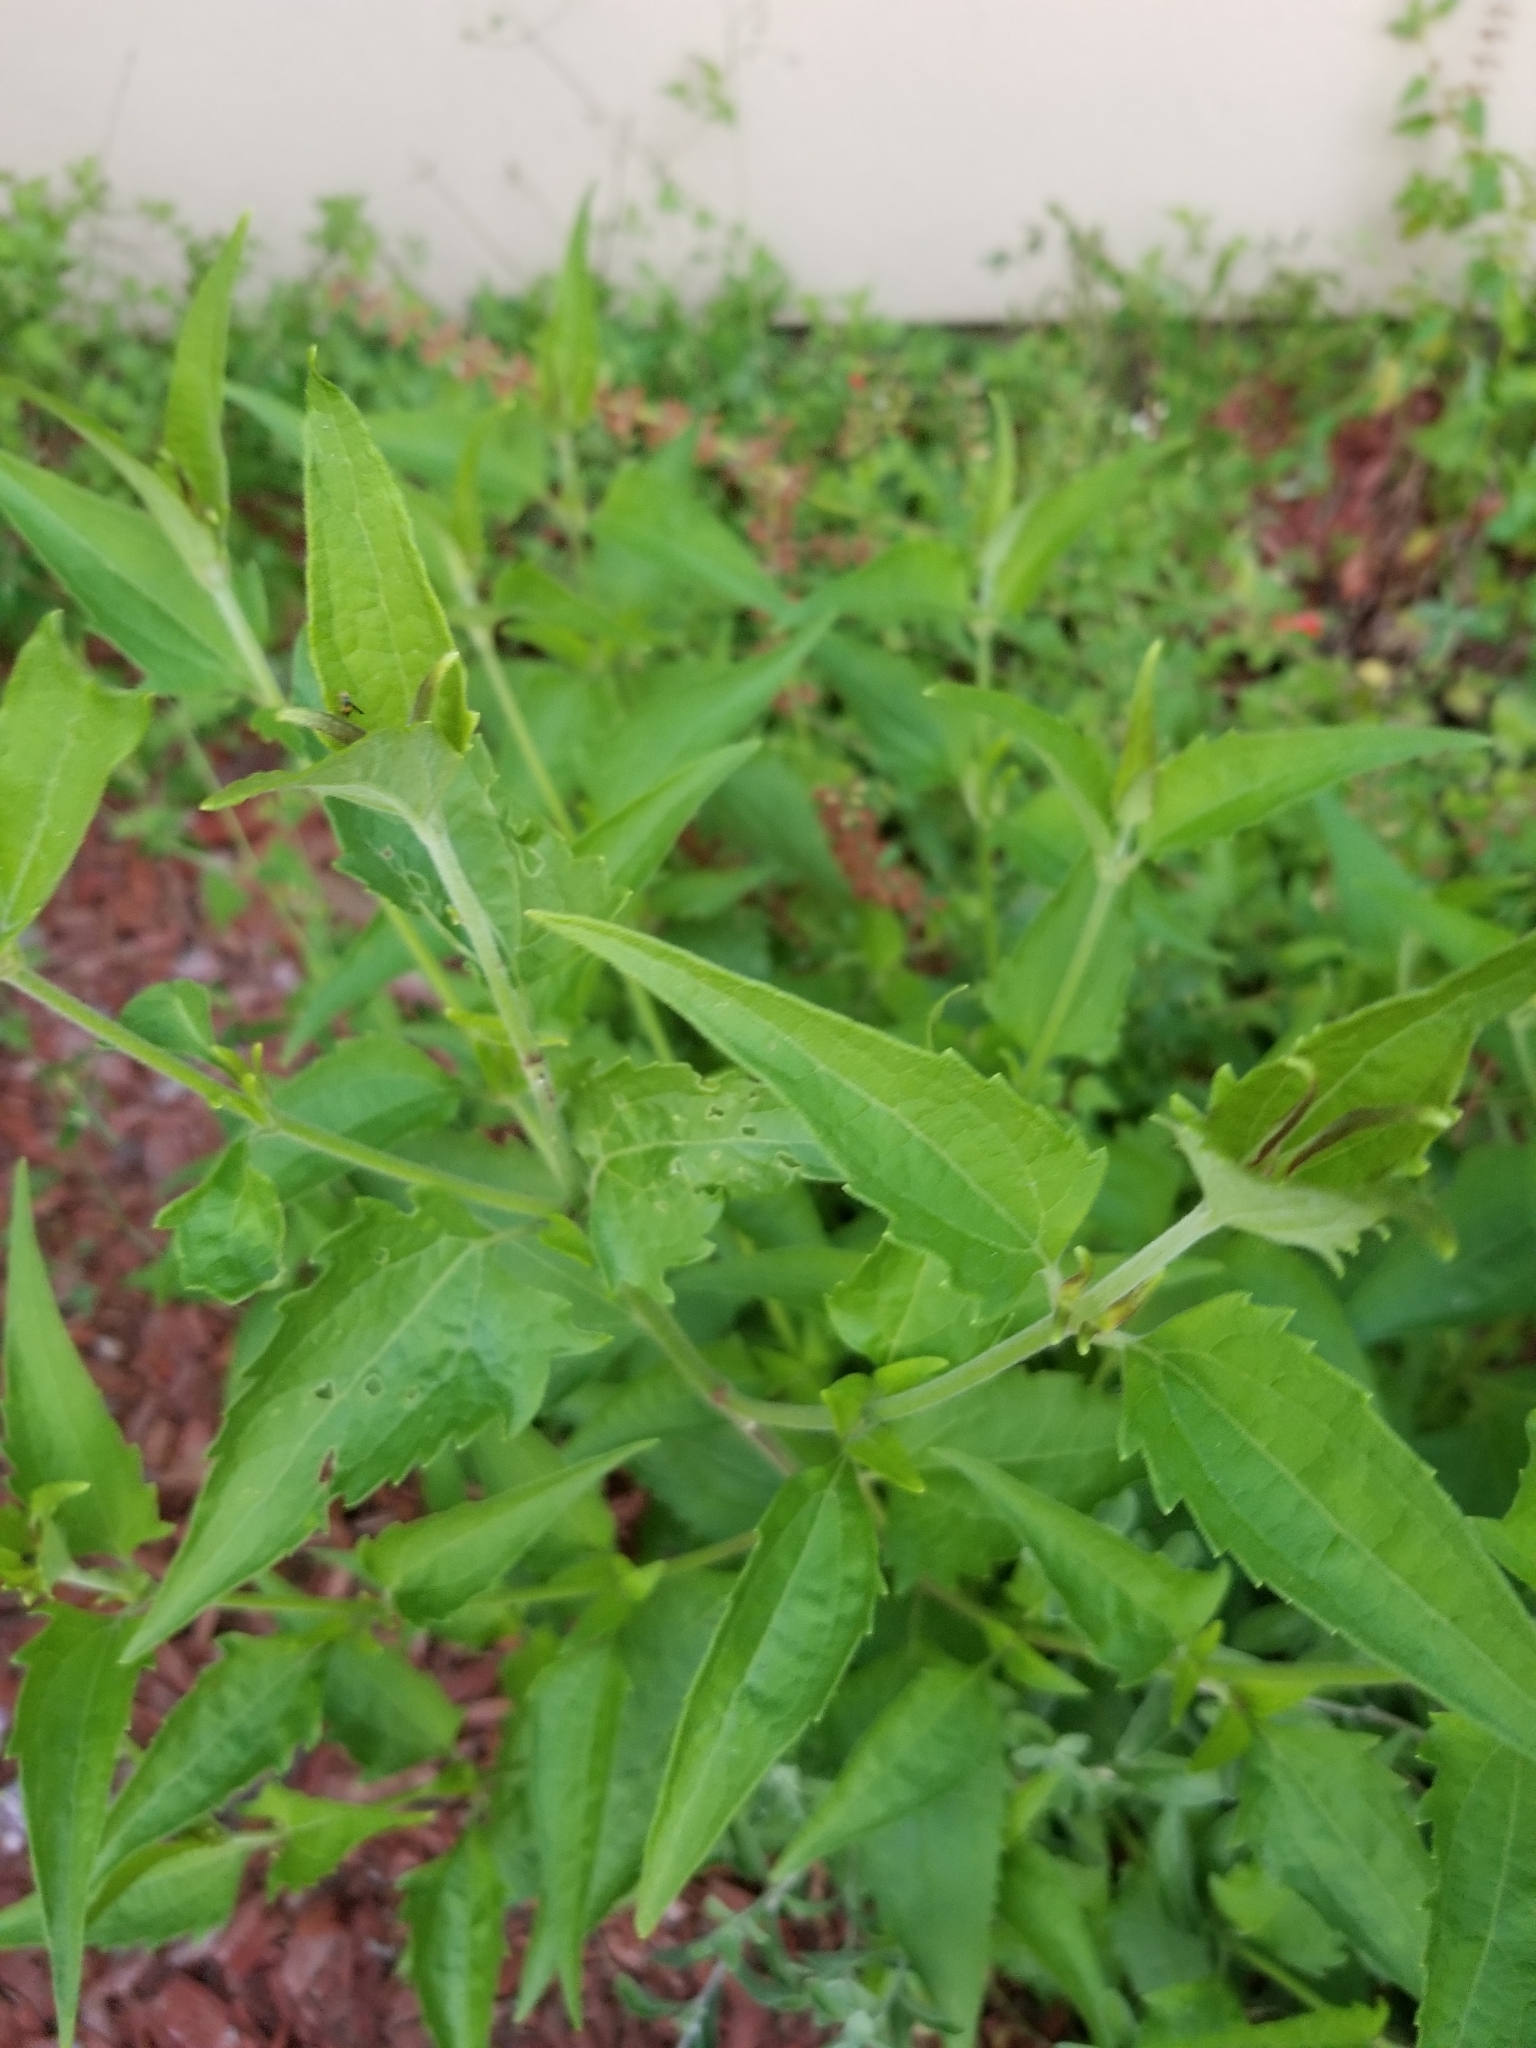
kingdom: Plantae
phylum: Tracheophyta
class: Magnoliopsida
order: Asterales
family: Asteraceae
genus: Chromolaena
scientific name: Chromolaena odorata
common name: Siamweed
